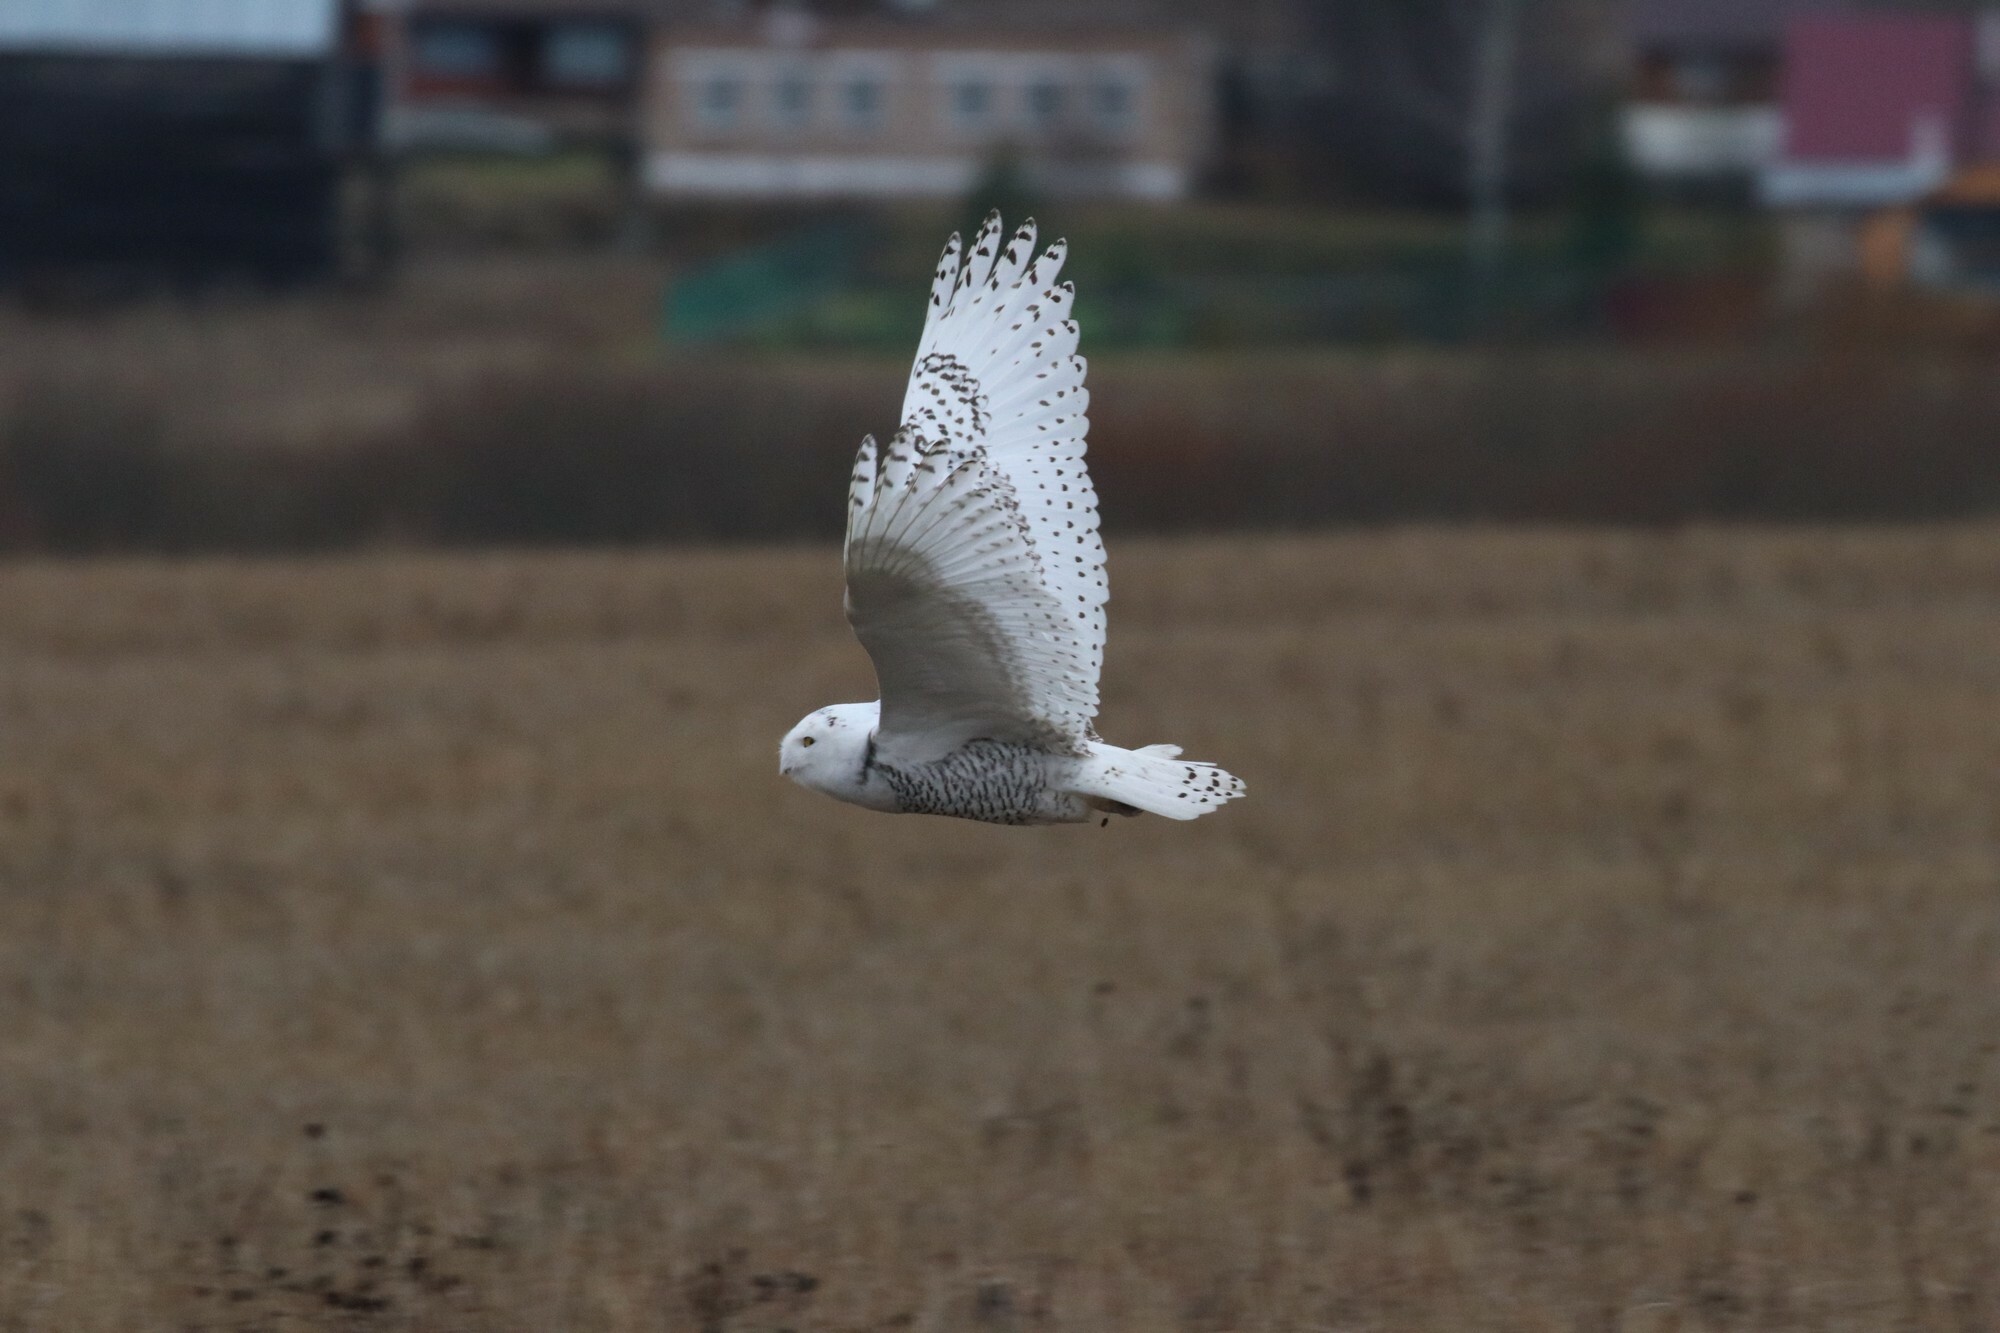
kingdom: Animalia
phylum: Chordata
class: Aves
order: Strigiformes
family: Strigidae
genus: Bubo
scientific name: Bubo scandiacus
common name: Snowy owl
